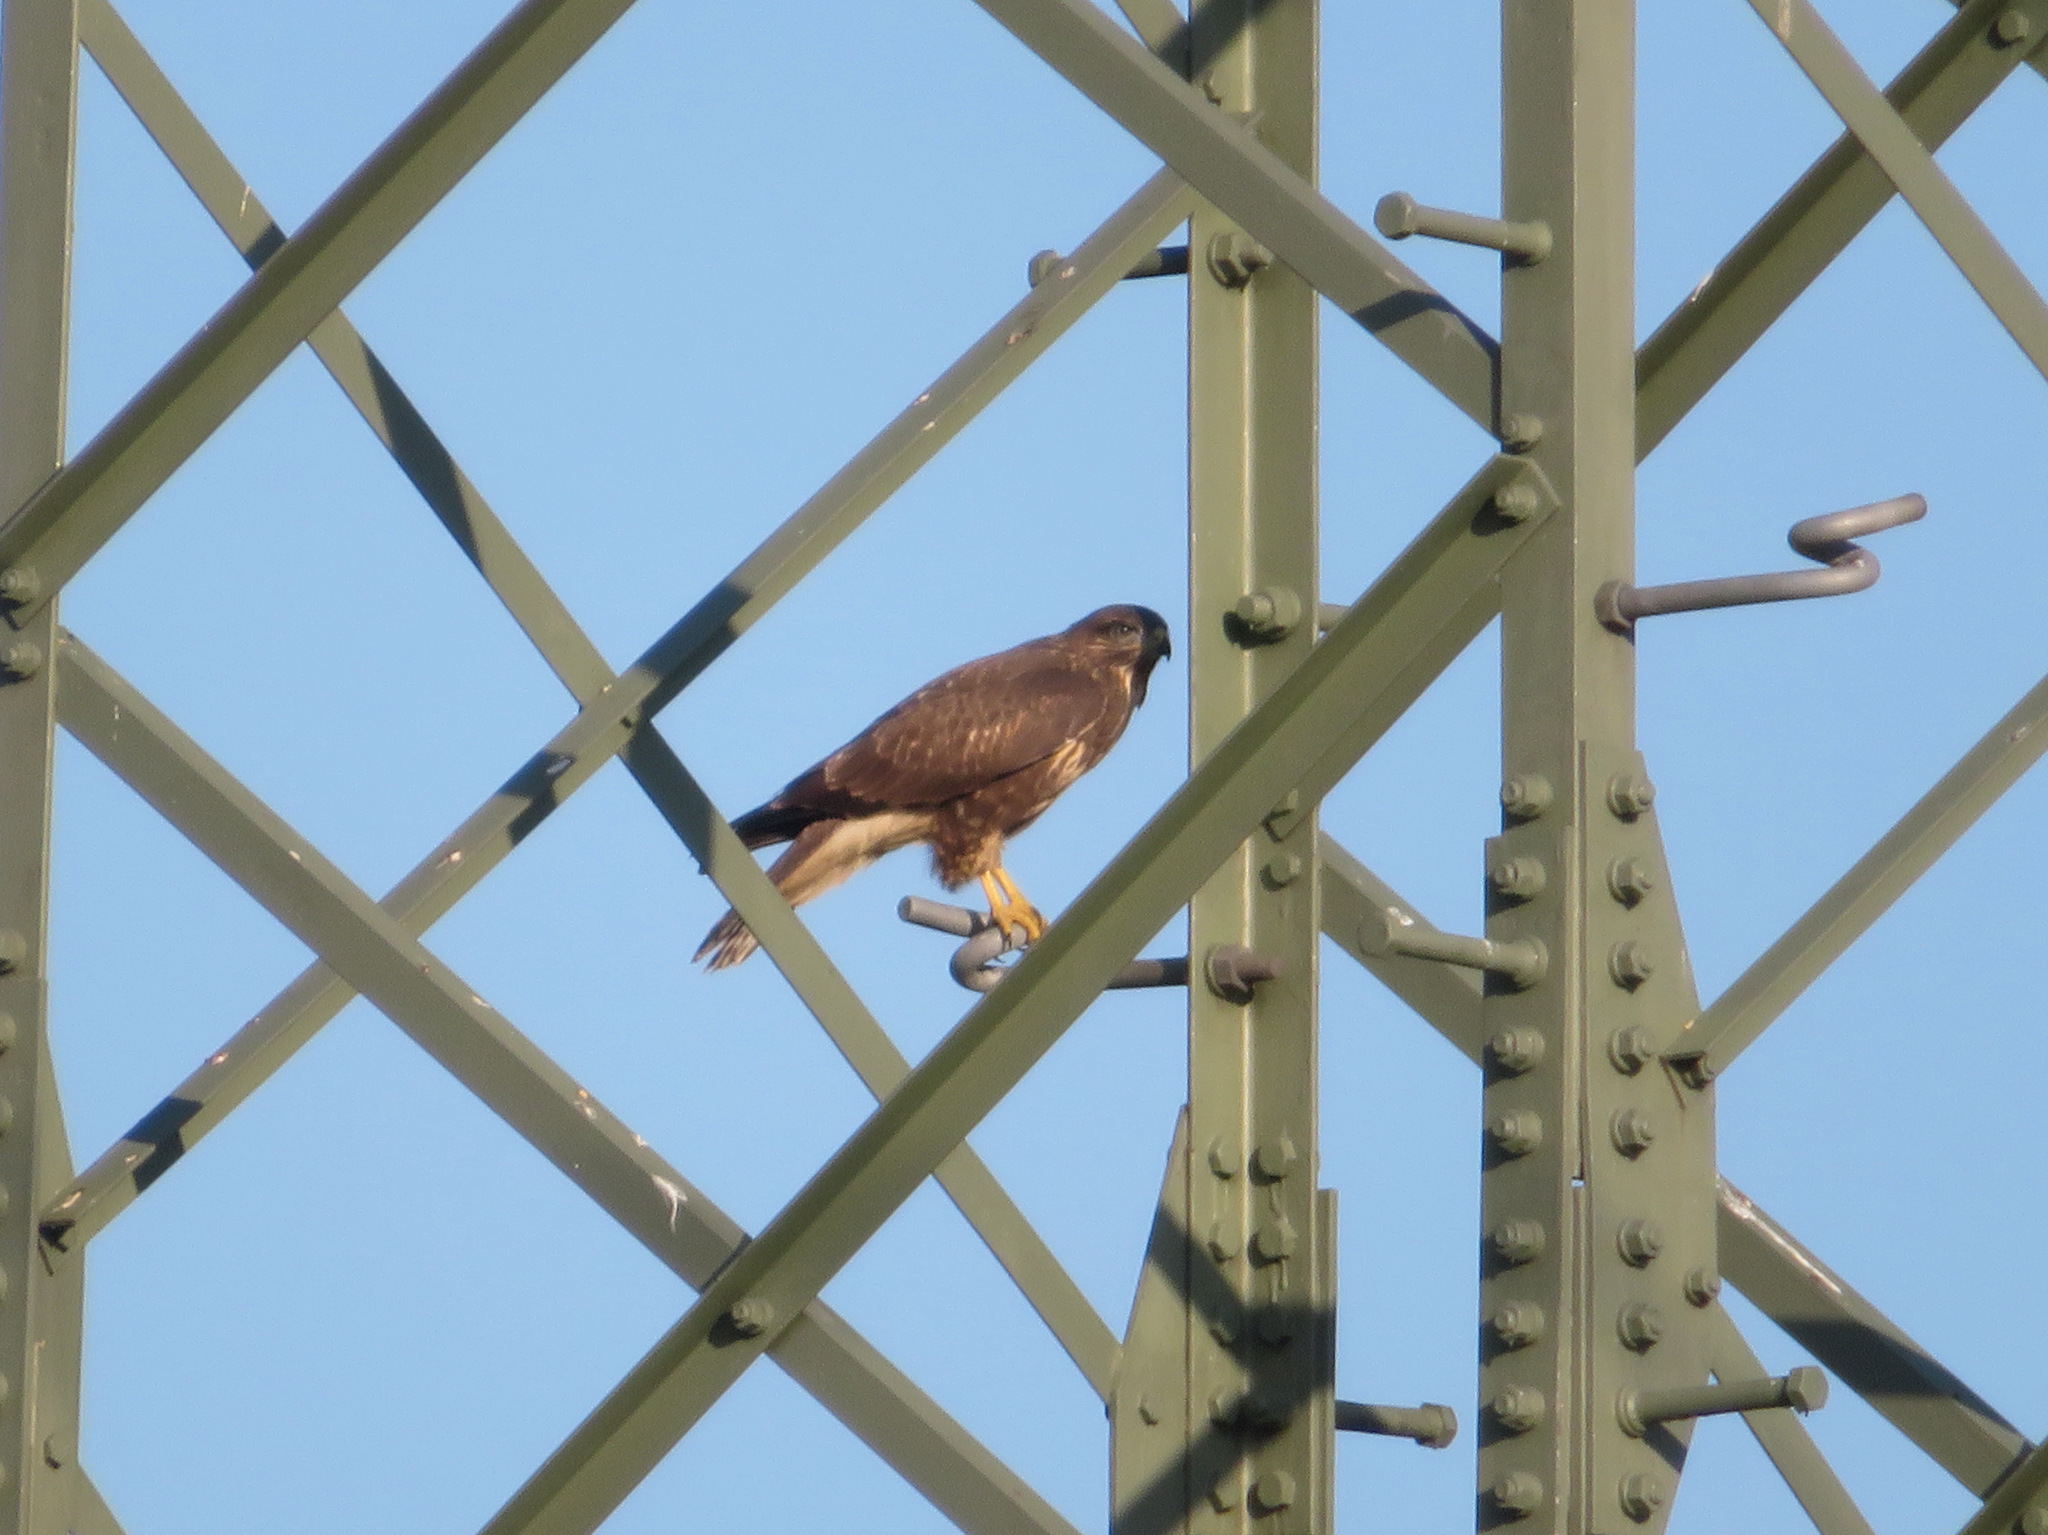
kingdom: Animalia
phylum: Chordata
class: Aves
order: Accipitriformes
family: Accipitridae
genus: Buteo
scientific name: Buteo buteo
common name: Common buzzard
